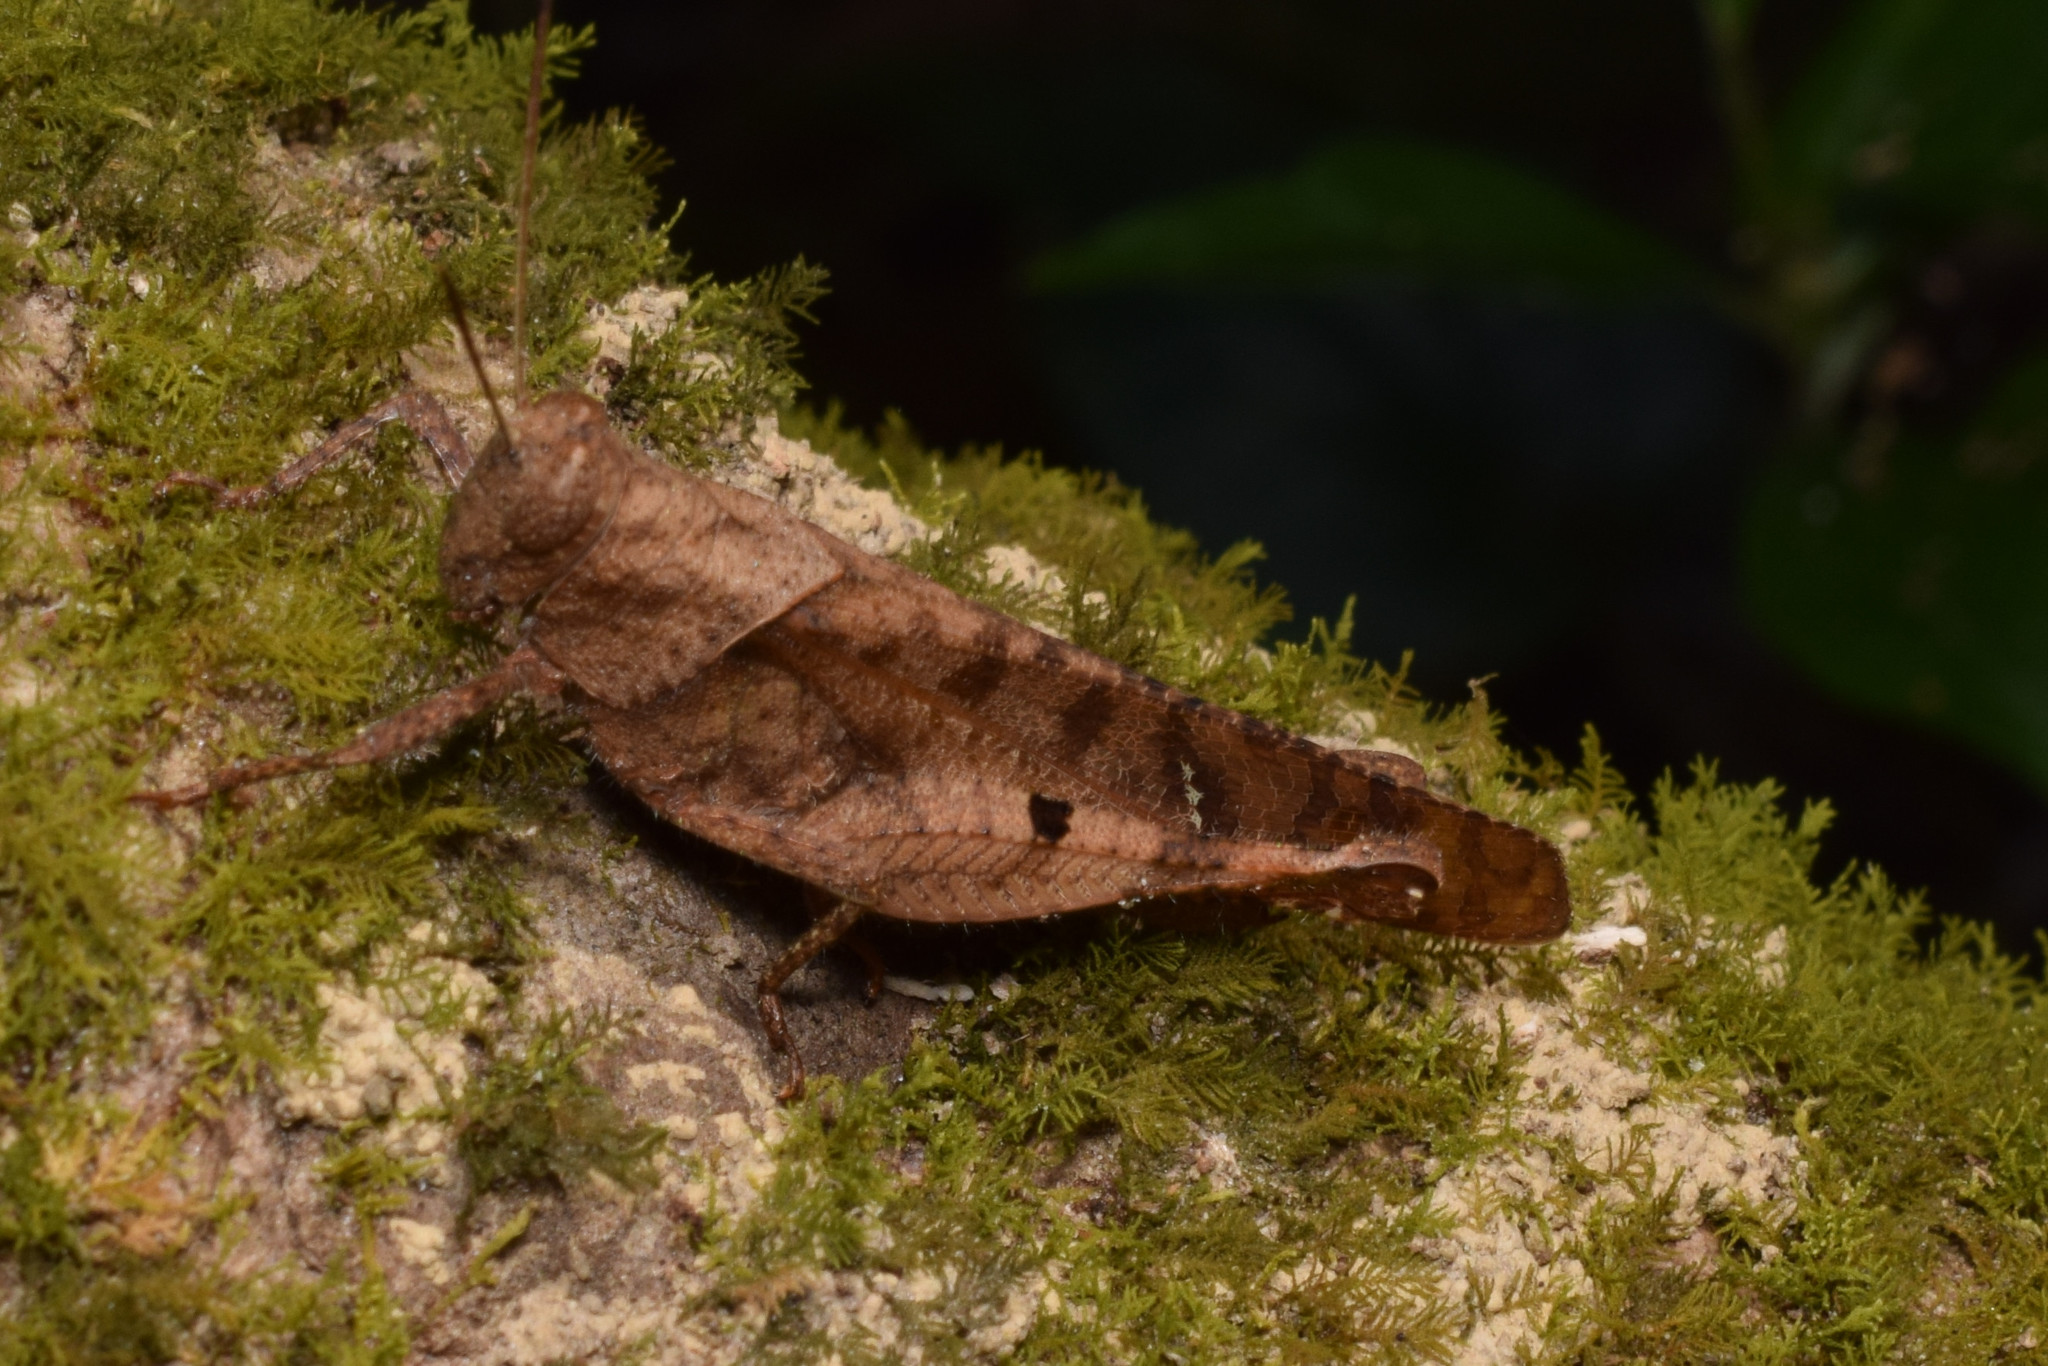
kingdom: Animalia
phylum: Arthropoda
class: Insecta
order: Orthoptera
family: Acrididae
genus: Eucoptacra
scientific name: Eucoptacra binghami
